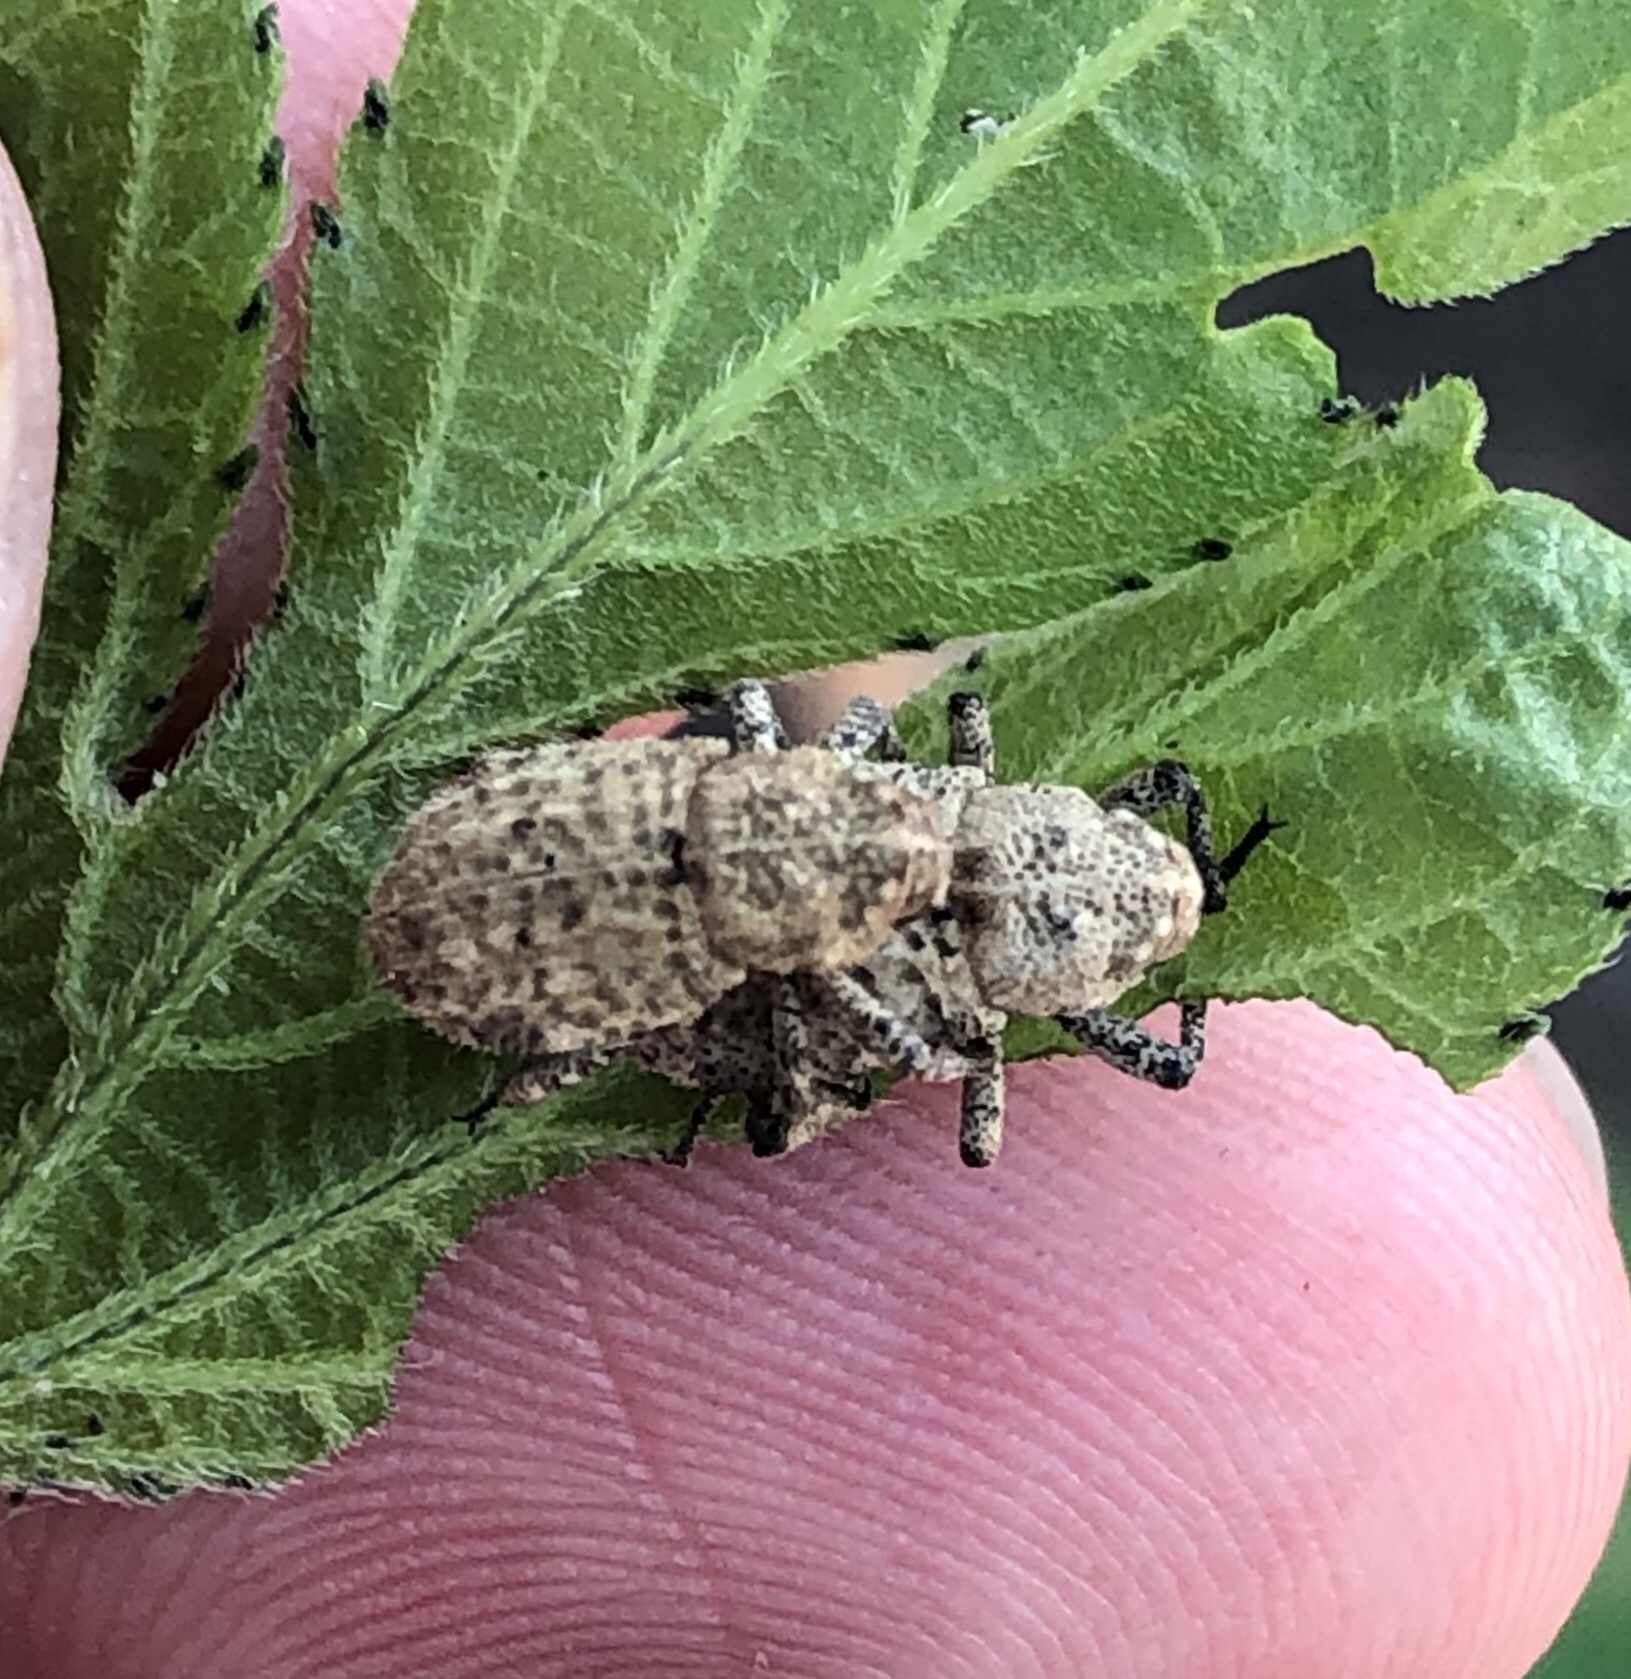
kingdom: Animalia
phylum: Arthropoda
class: Insecta
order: Coleoptera
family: Curculionidae
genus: Thecesternus
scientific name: Thecesternus maculosus
